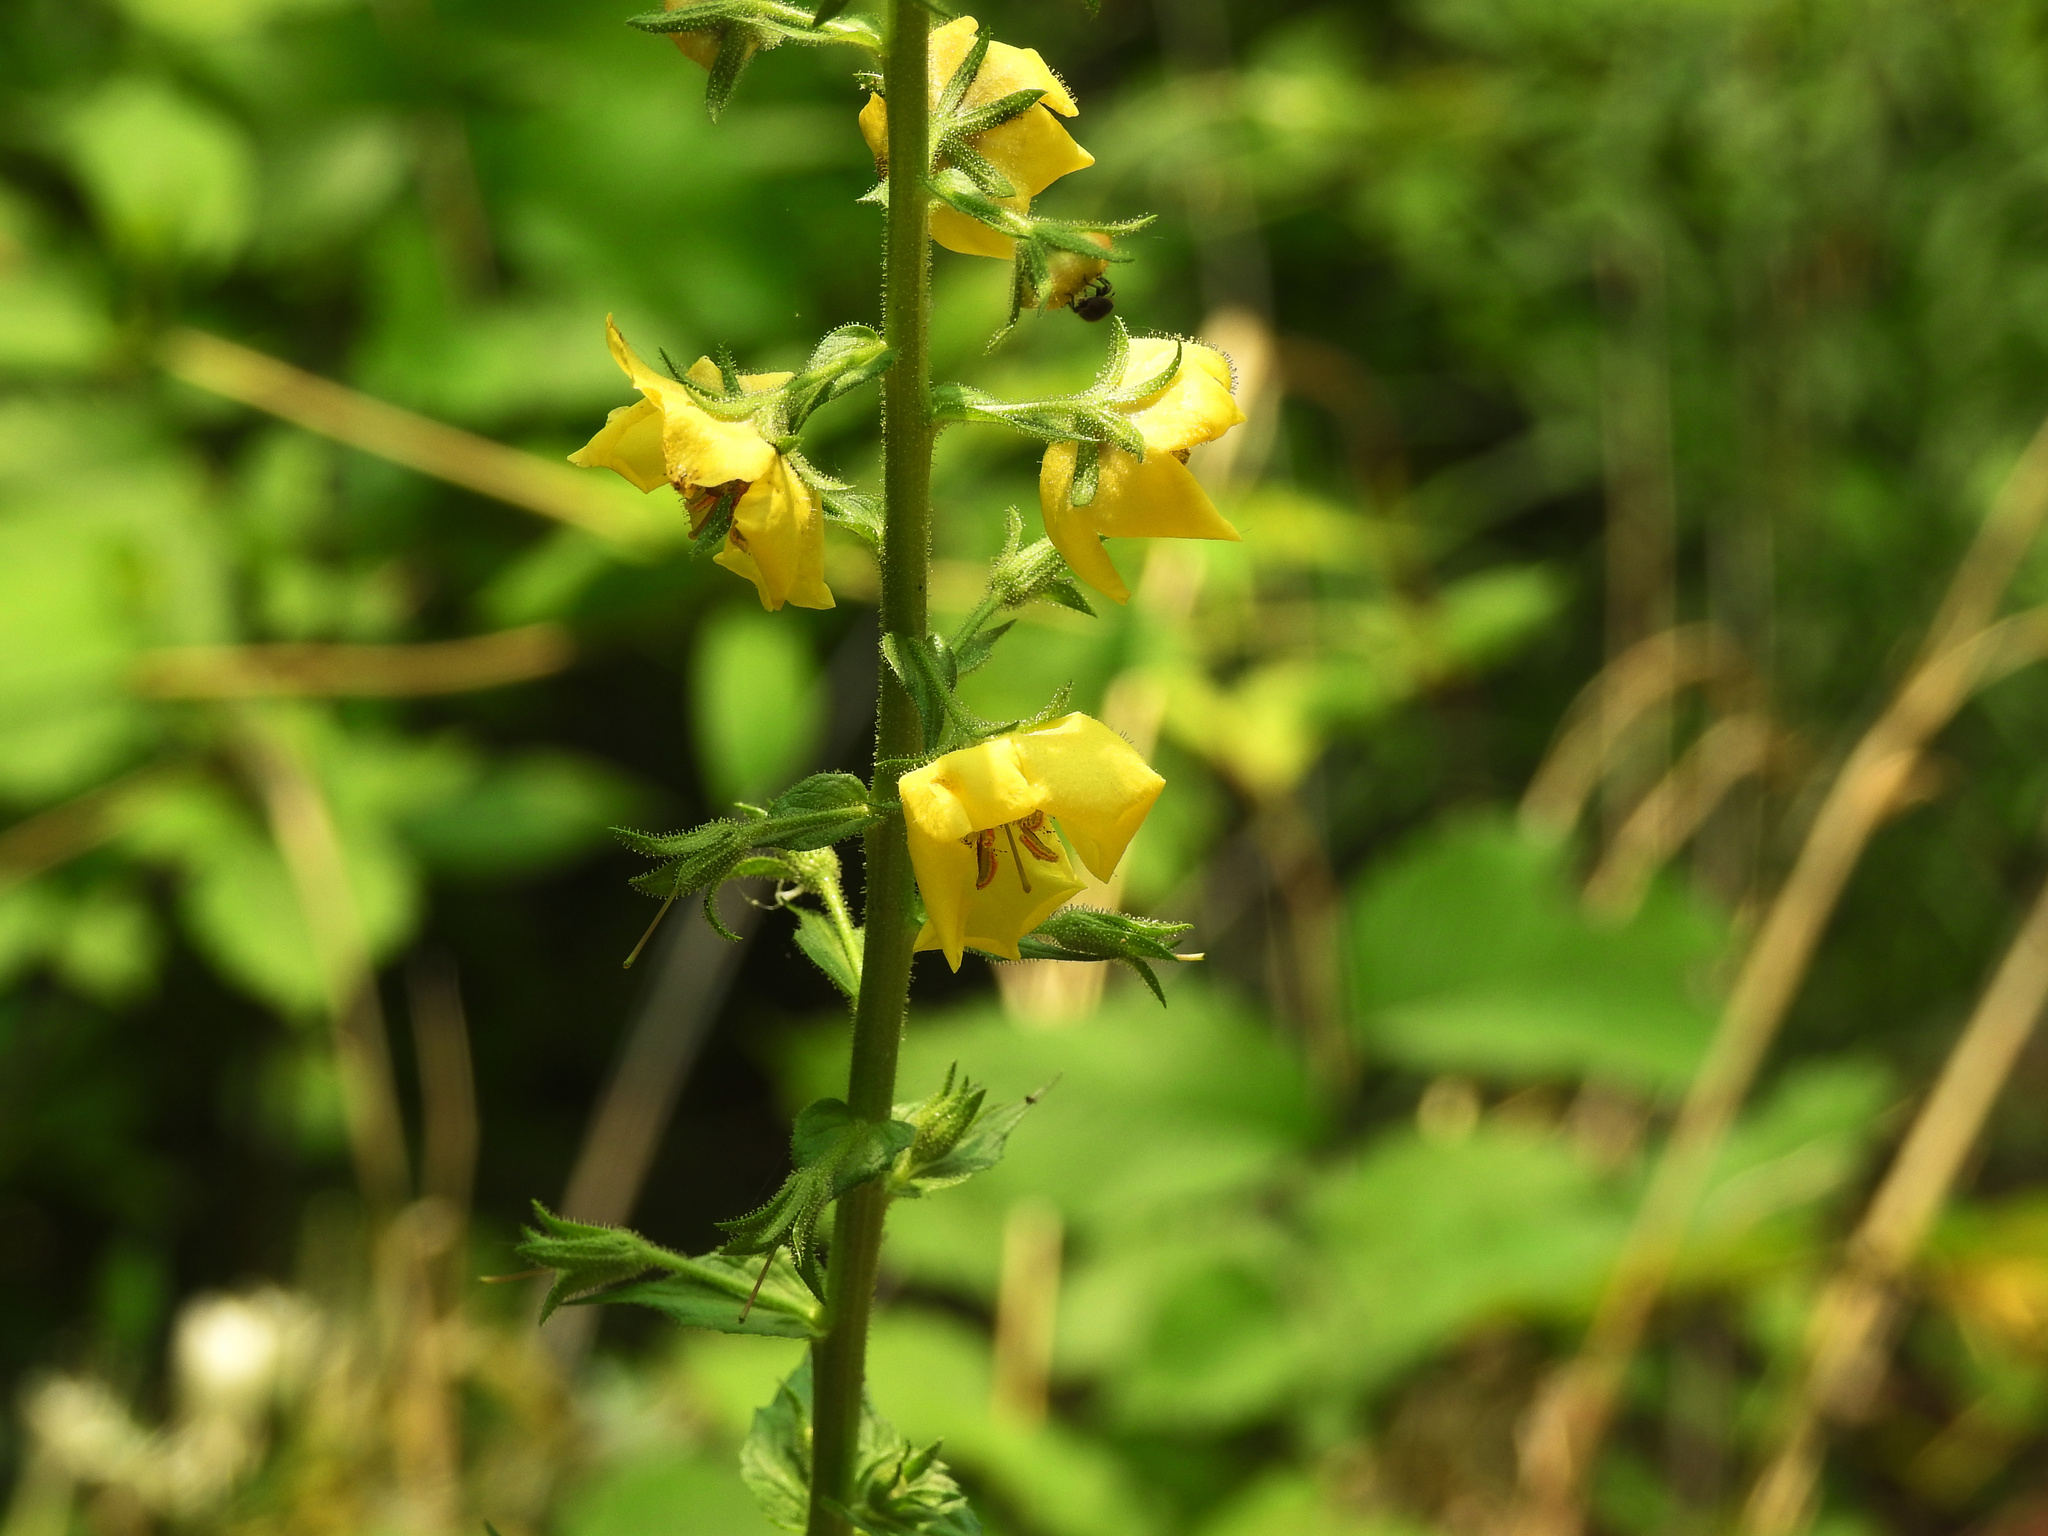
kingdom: Plantae
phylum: Tracheophyta
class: Magnoliopsida
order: Lamiales
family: Scrophulariaceae
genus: Verbascum
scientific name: Verbascum blattaria
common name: Moth mullein
